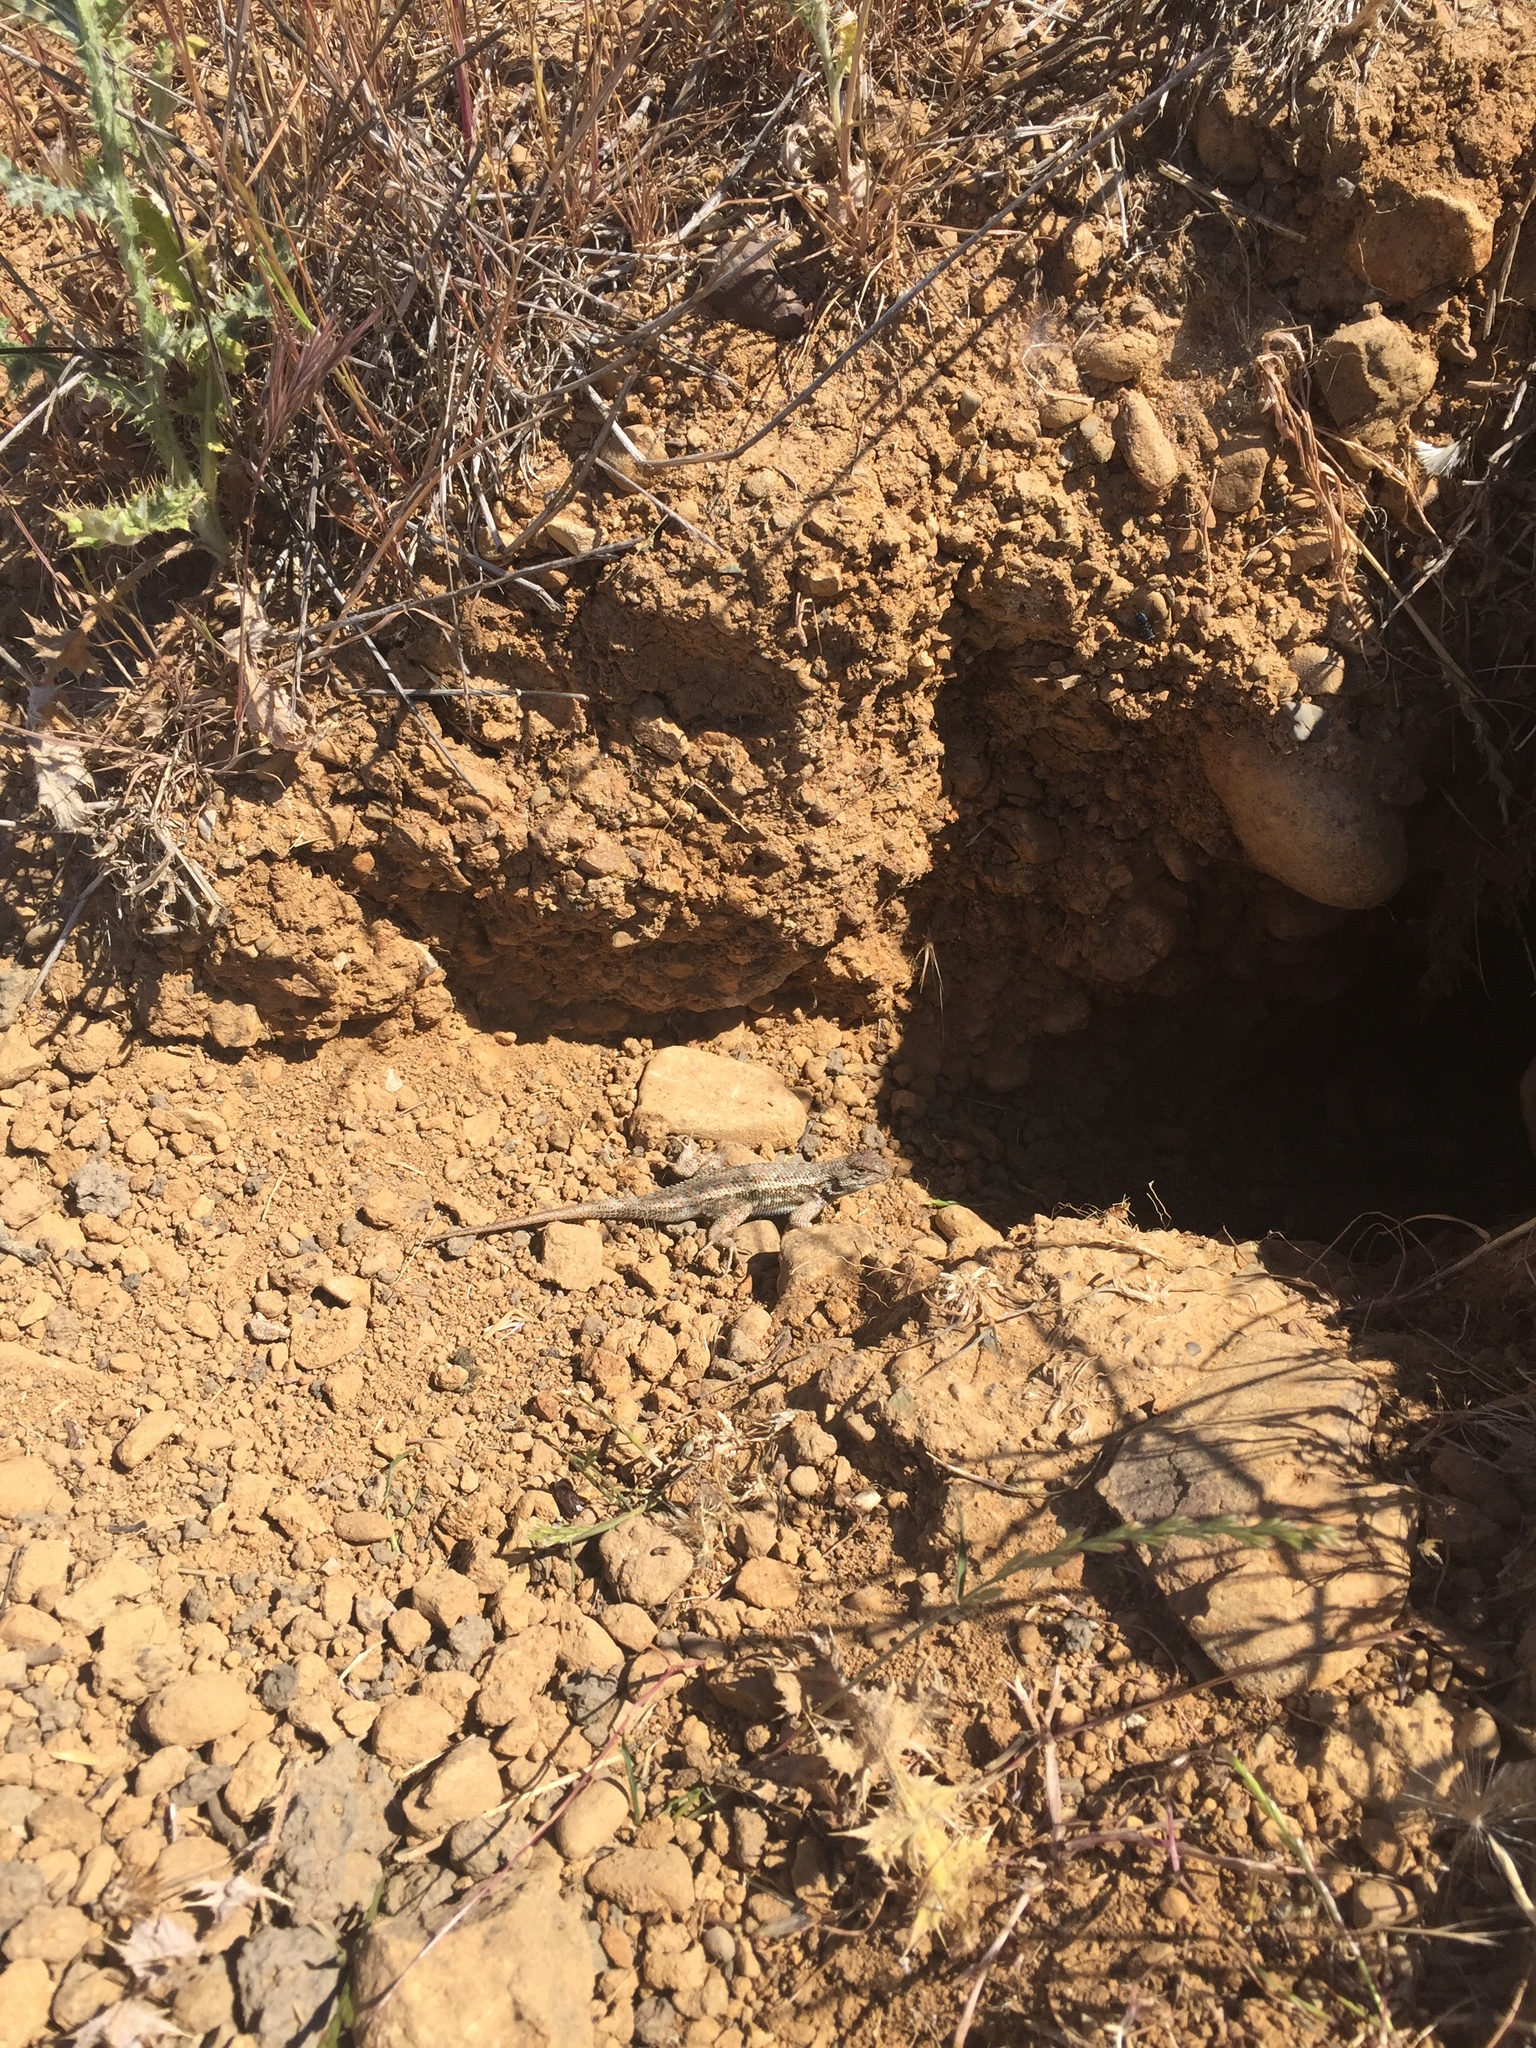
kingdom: Animalia
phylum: Chordata
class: Squamata
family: Phrynosomatidae
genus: Sceloporus
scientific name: Sceloporus occidentalis
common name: Western fence lizard
